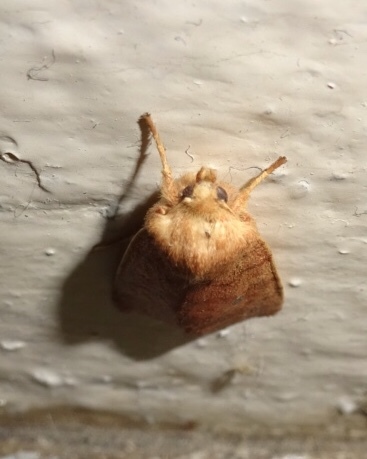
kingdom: Animalia
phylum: Arthropoda
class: Insecta
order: Lepidoptera
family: Noctuidae
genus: Agrochola
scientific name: Agrochola bicolorago
